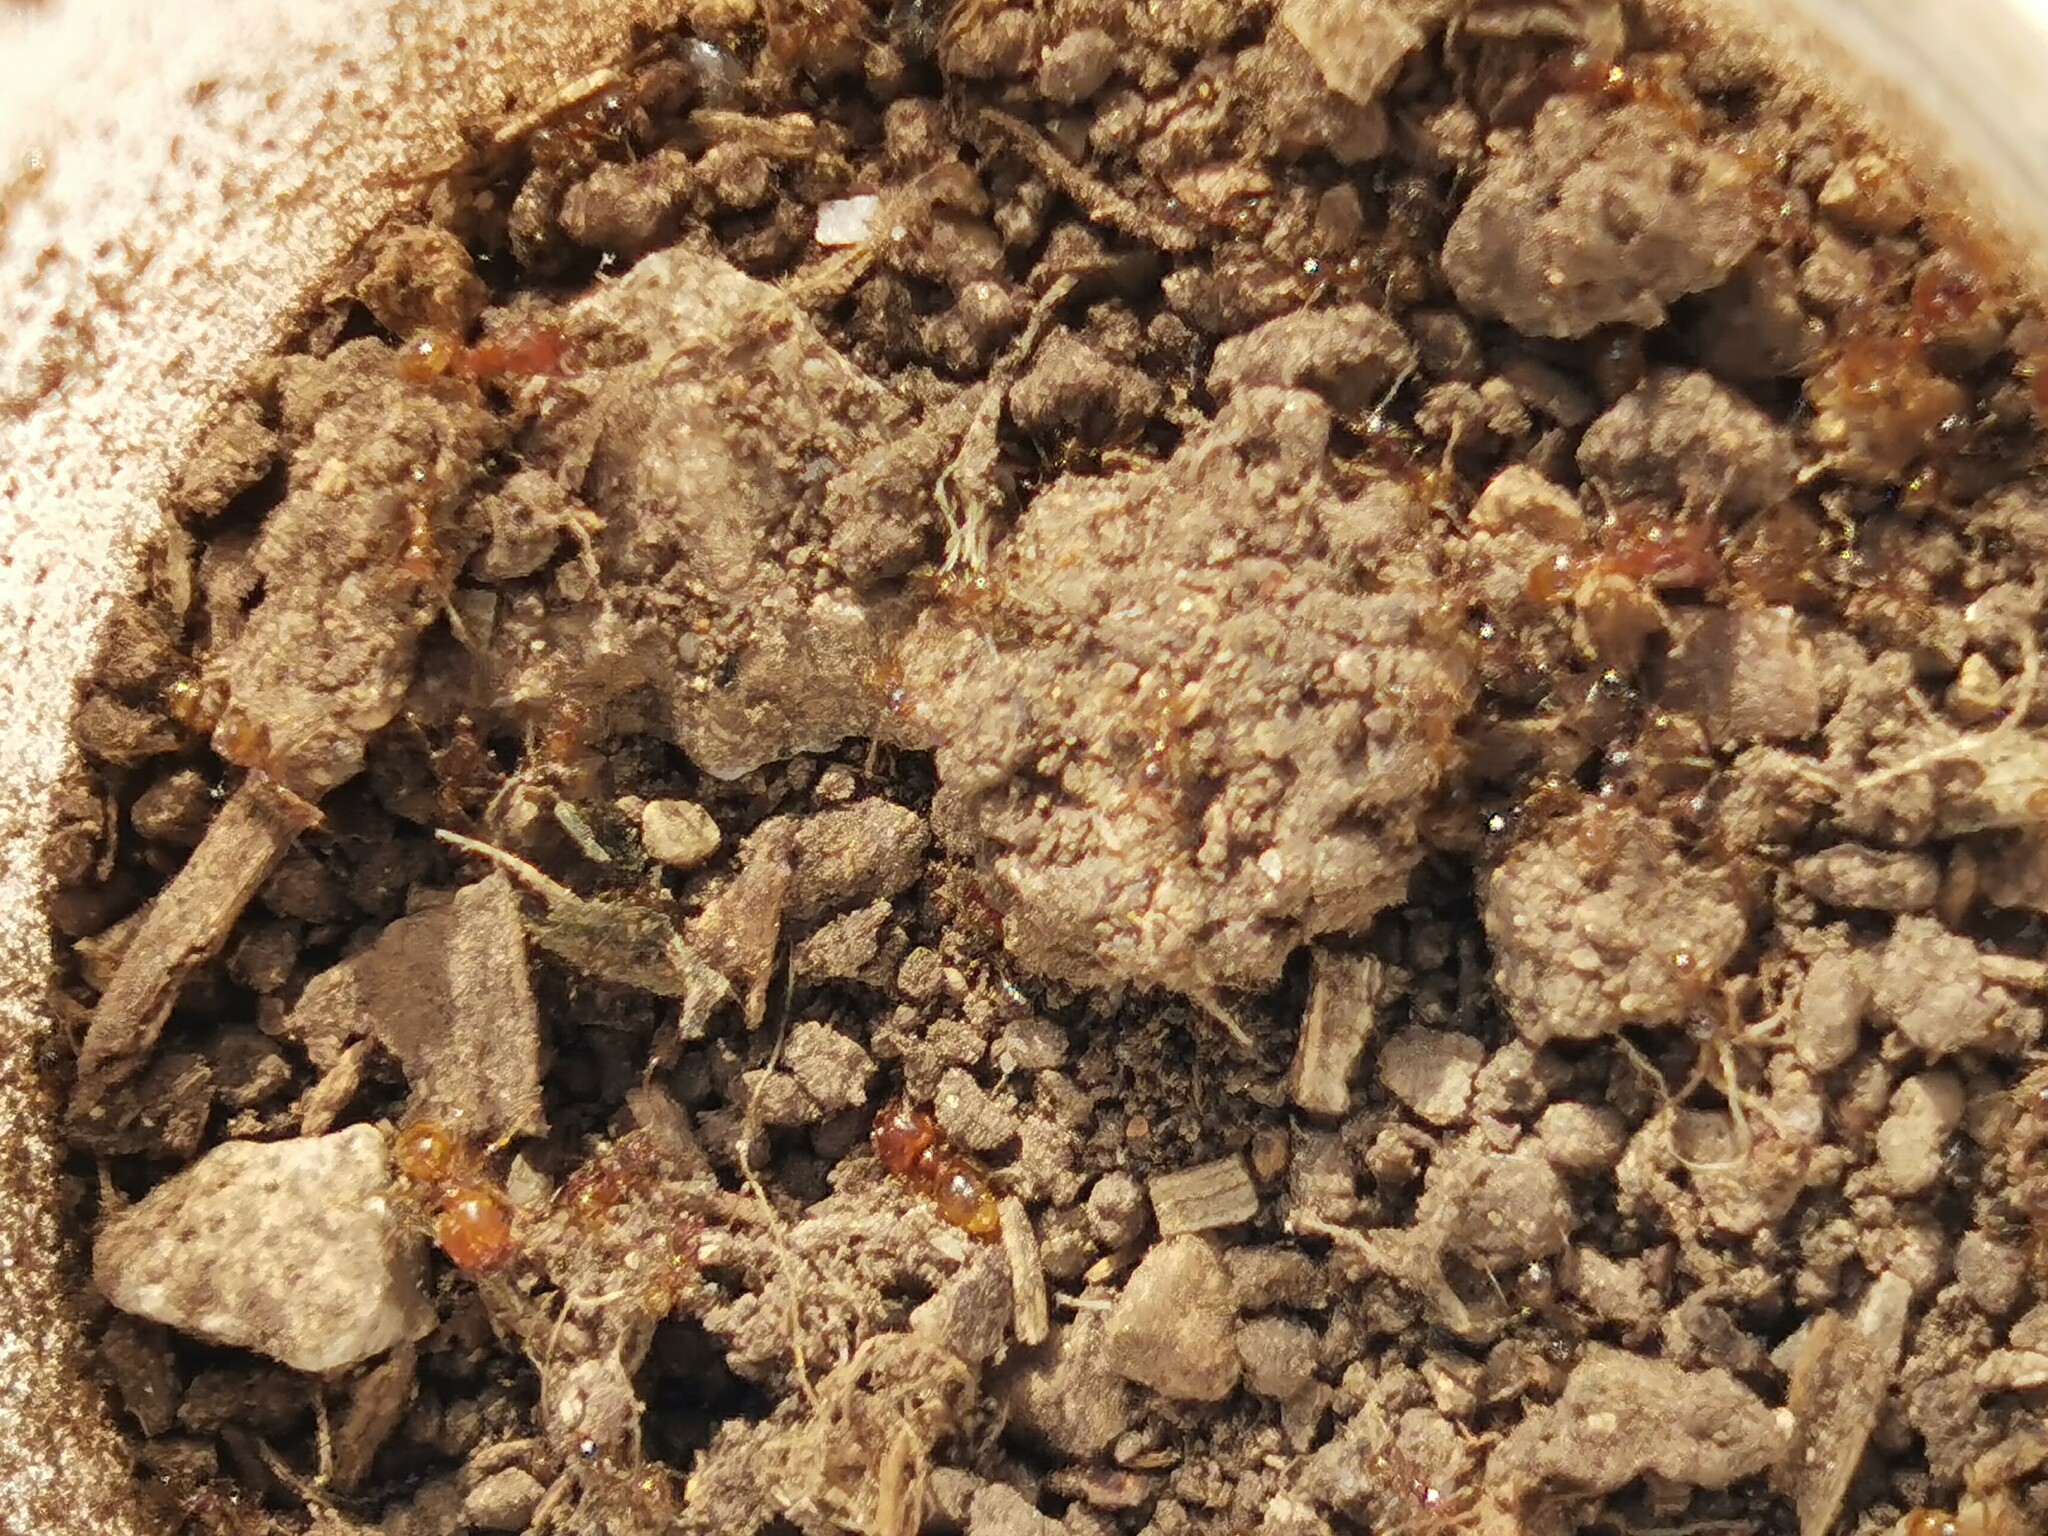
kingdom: Animalia
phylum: Arthropoda
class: Insecta
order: Hymenoptera
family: Formicidae
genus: Pheidole
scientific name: Pheidole pallidula
